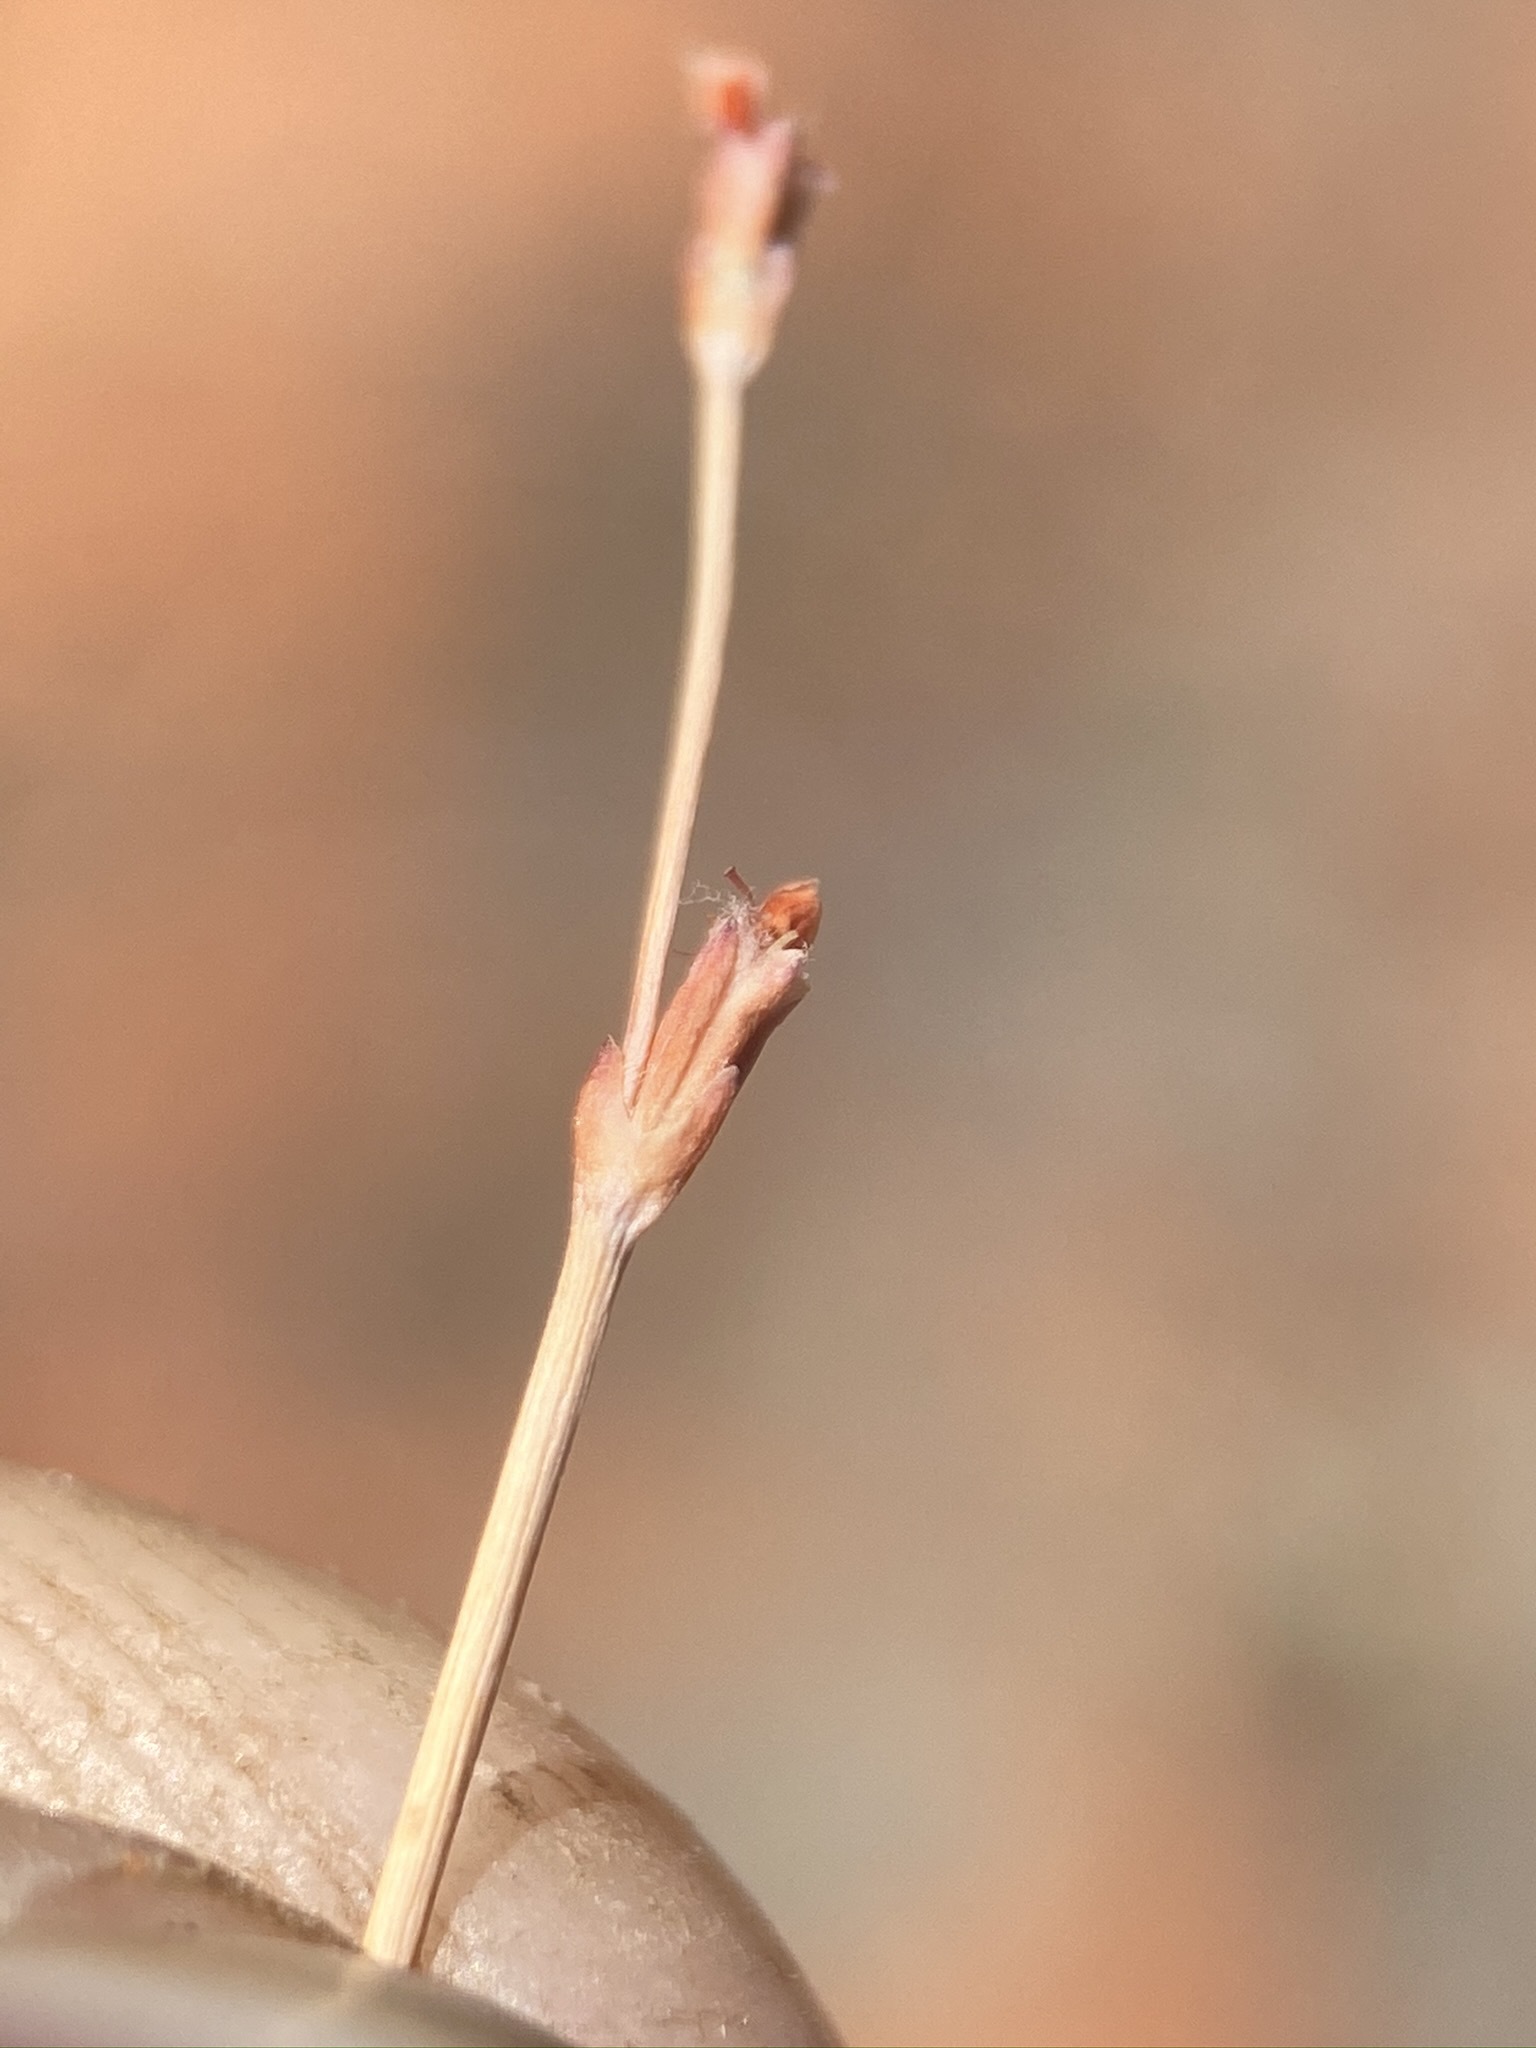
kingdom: Plantae
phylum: Tracheophyta
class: Magnoliopsida
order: Caryophyllales
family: Polygonaceae
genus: Eriogonum
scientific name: Eriogonum davidsonii
